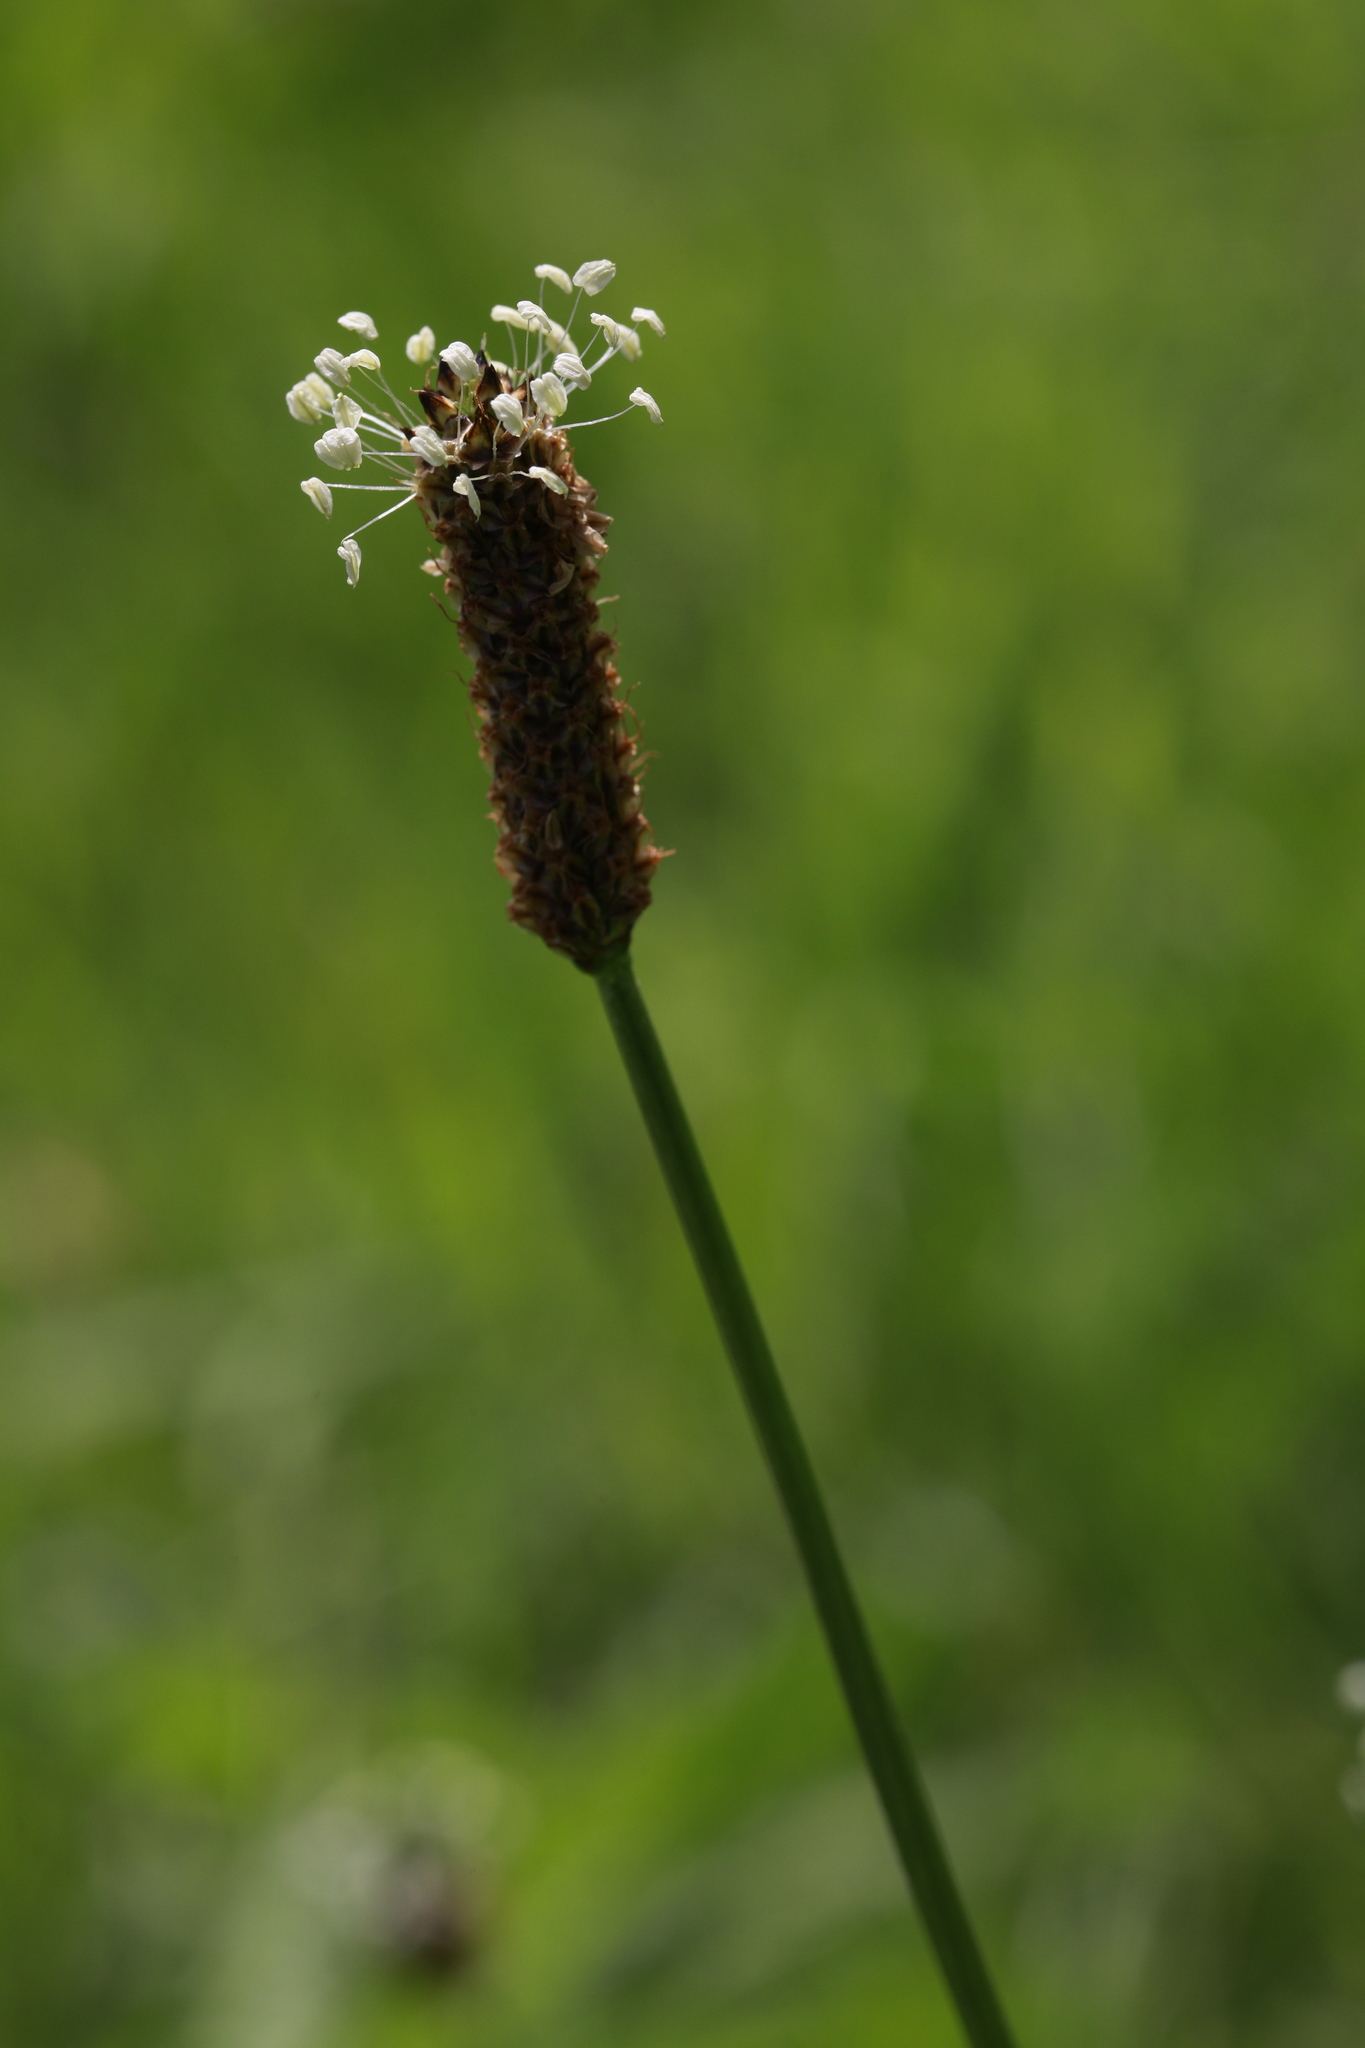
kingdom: Plantae
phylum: Tracheophyta
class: Magnoliopsida
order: Lamiales
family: Plantaginaceae
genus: Plantago
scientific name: Plantago lanceolata
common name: Ribwort plantain
